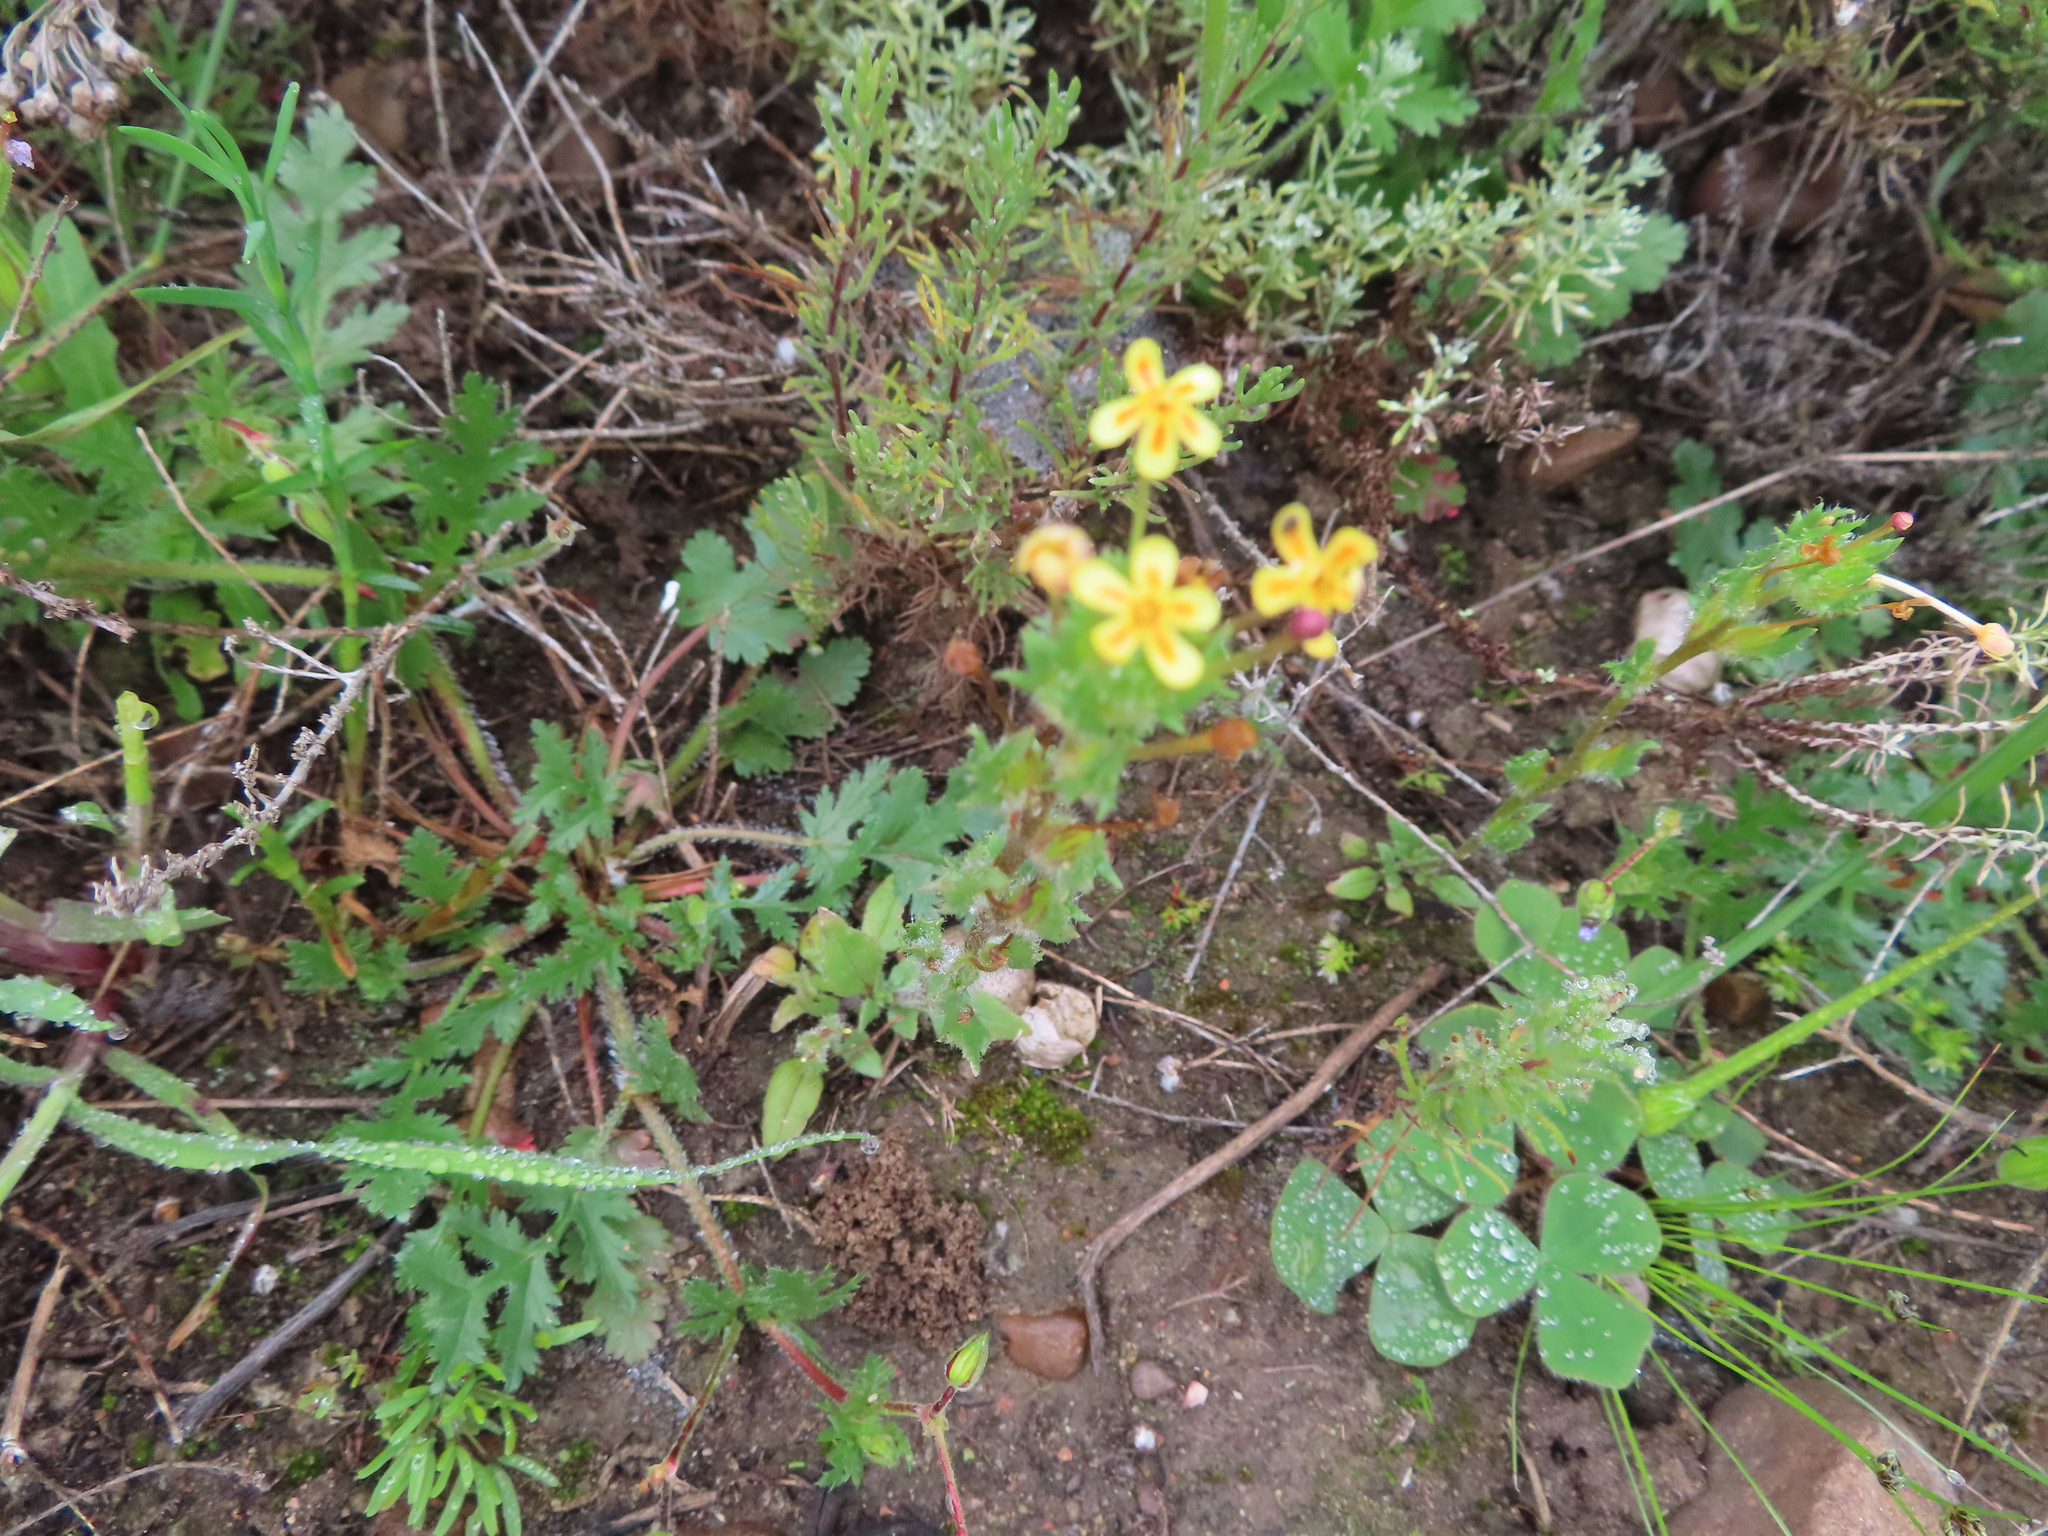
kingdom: Plantae
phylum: Tracheophyta
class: Magnoliopsida
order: Lamiales
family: Scrophulariaceae
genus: Zaluzianskya
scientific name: Zaluzianskya divaricata
